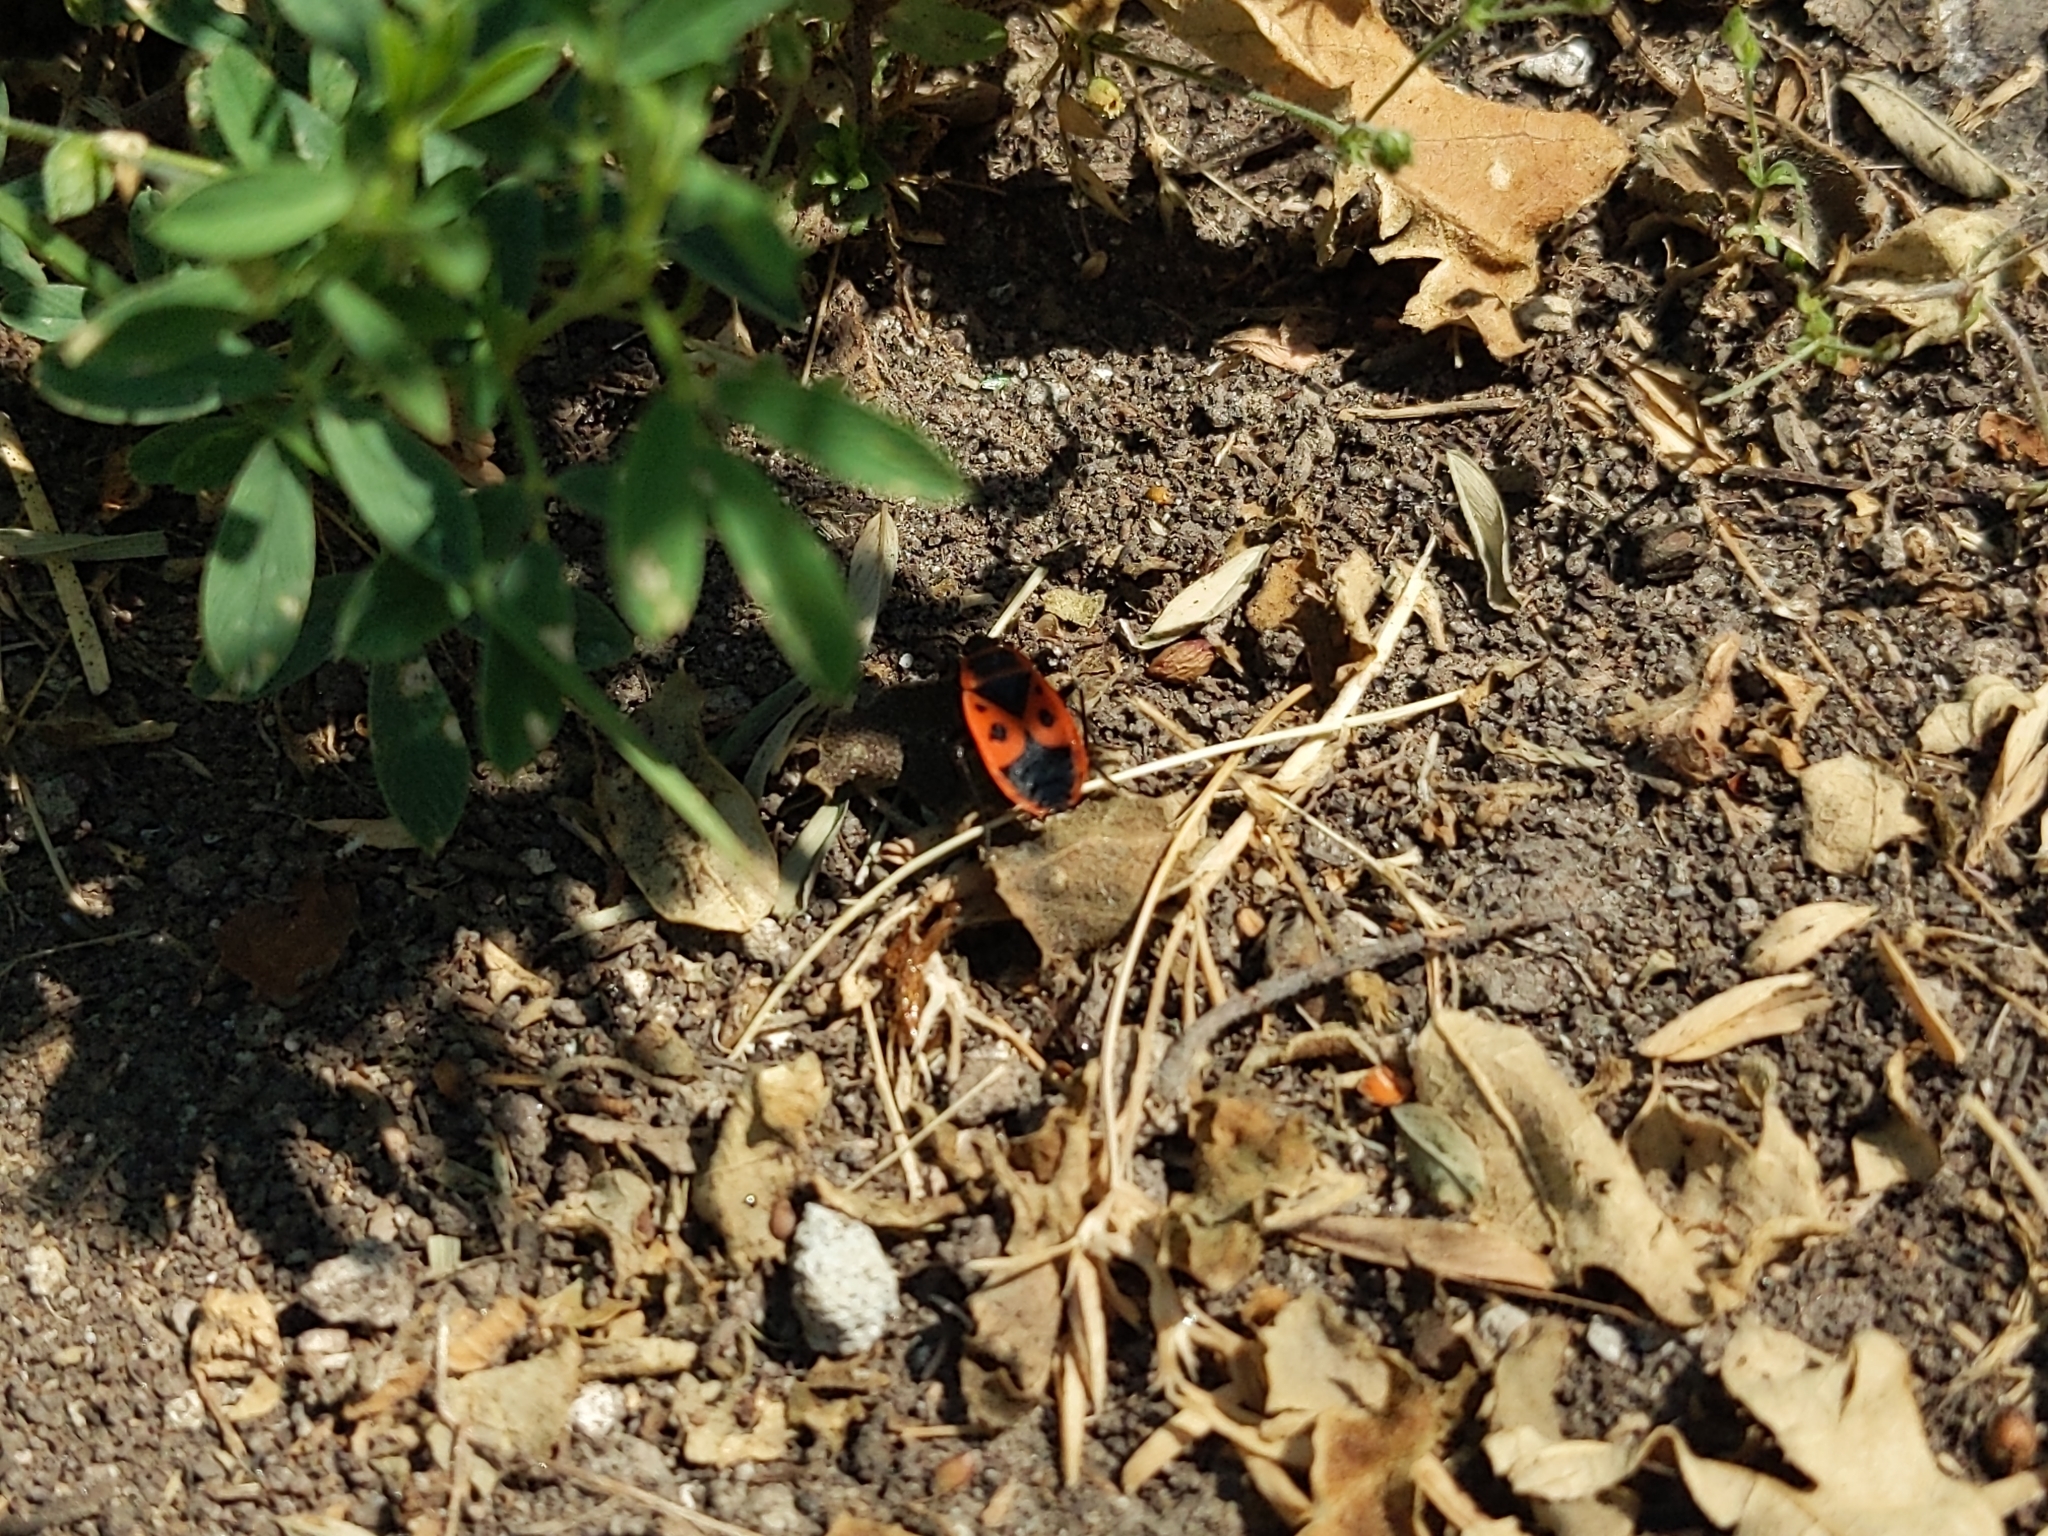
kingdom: Animalia
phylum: Arthropoda
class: Insecta
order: Hemiptera
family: Pyrrhocoridae
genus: Pyrrhocoris
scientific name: Pyrrhocoris apterus
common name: Firebug
